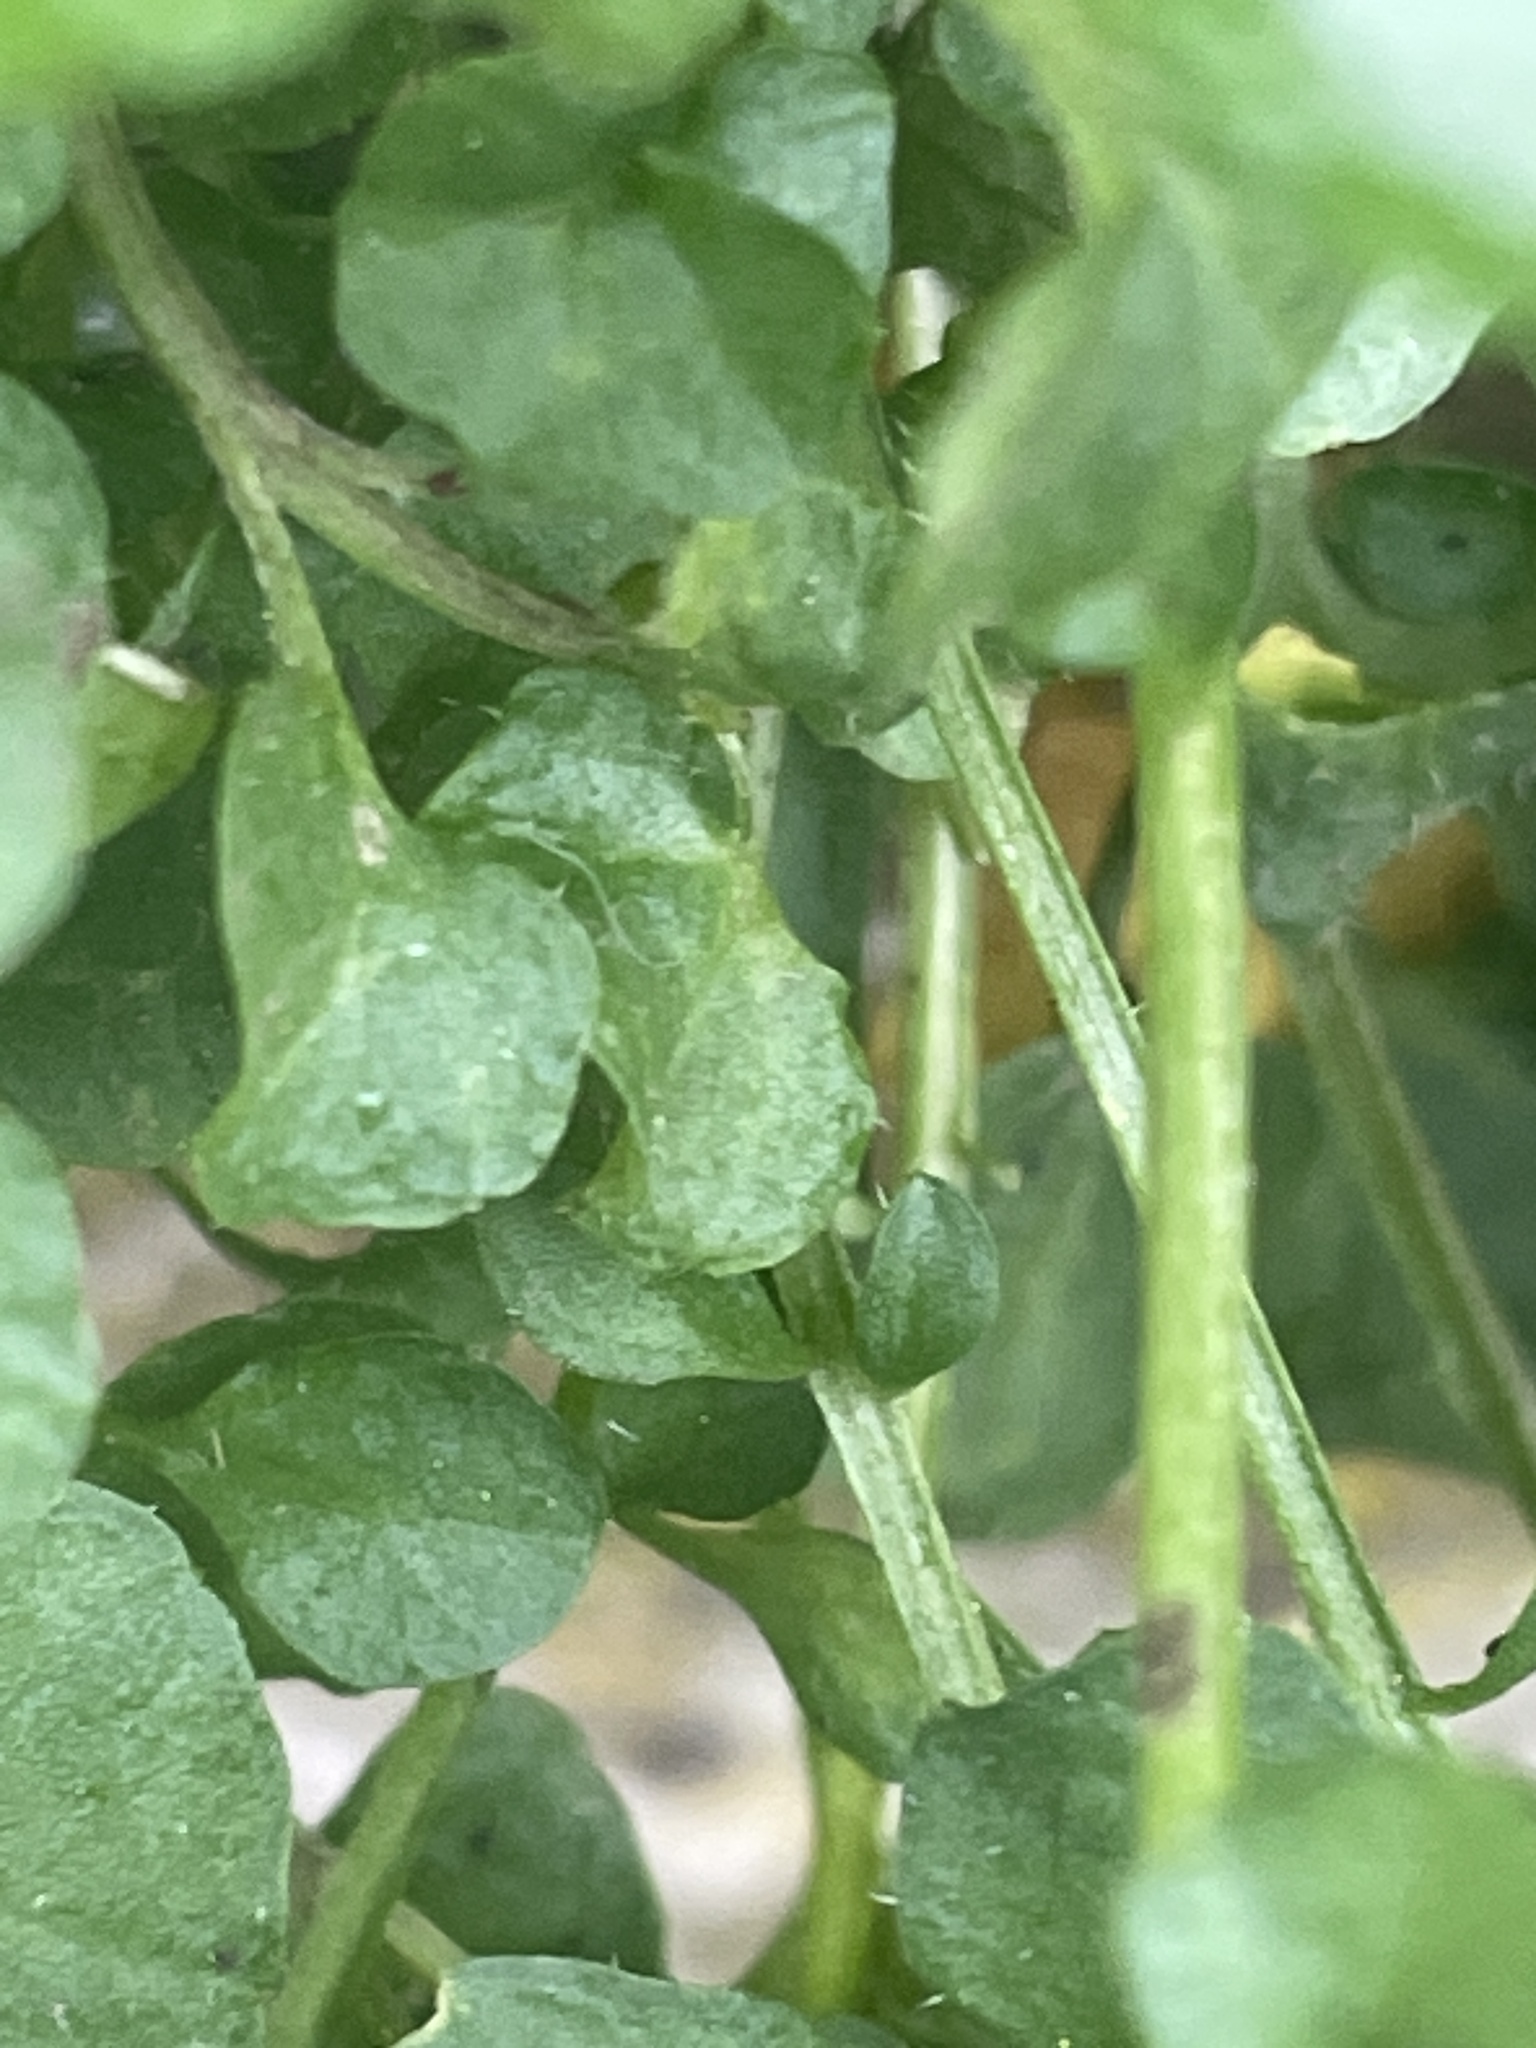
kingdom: Plantae
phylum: Tracheophyta
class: Magnoliopsida
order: Brassicales
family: Brassicaceae
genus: Cardamine
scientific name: Cardamine
